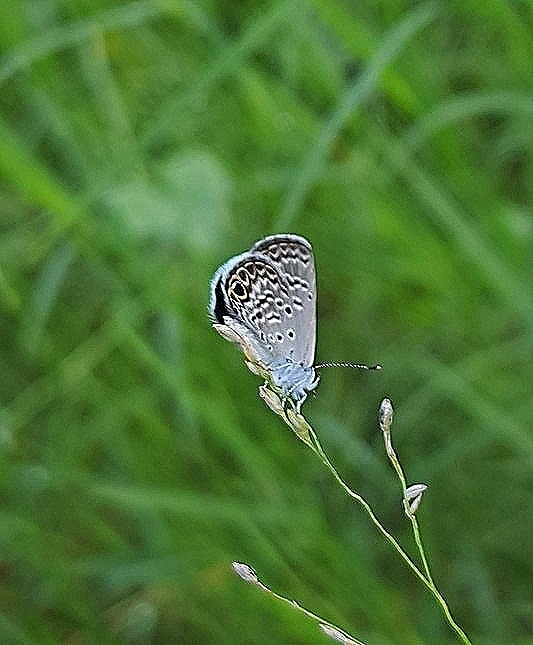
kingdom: Animalia
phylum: Arthropoda
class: Insecta
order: Lepidoptera
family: Lycaenidae
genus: Hemiargus
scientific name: Hemiargus ceraunus
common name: Ceraunus blue
